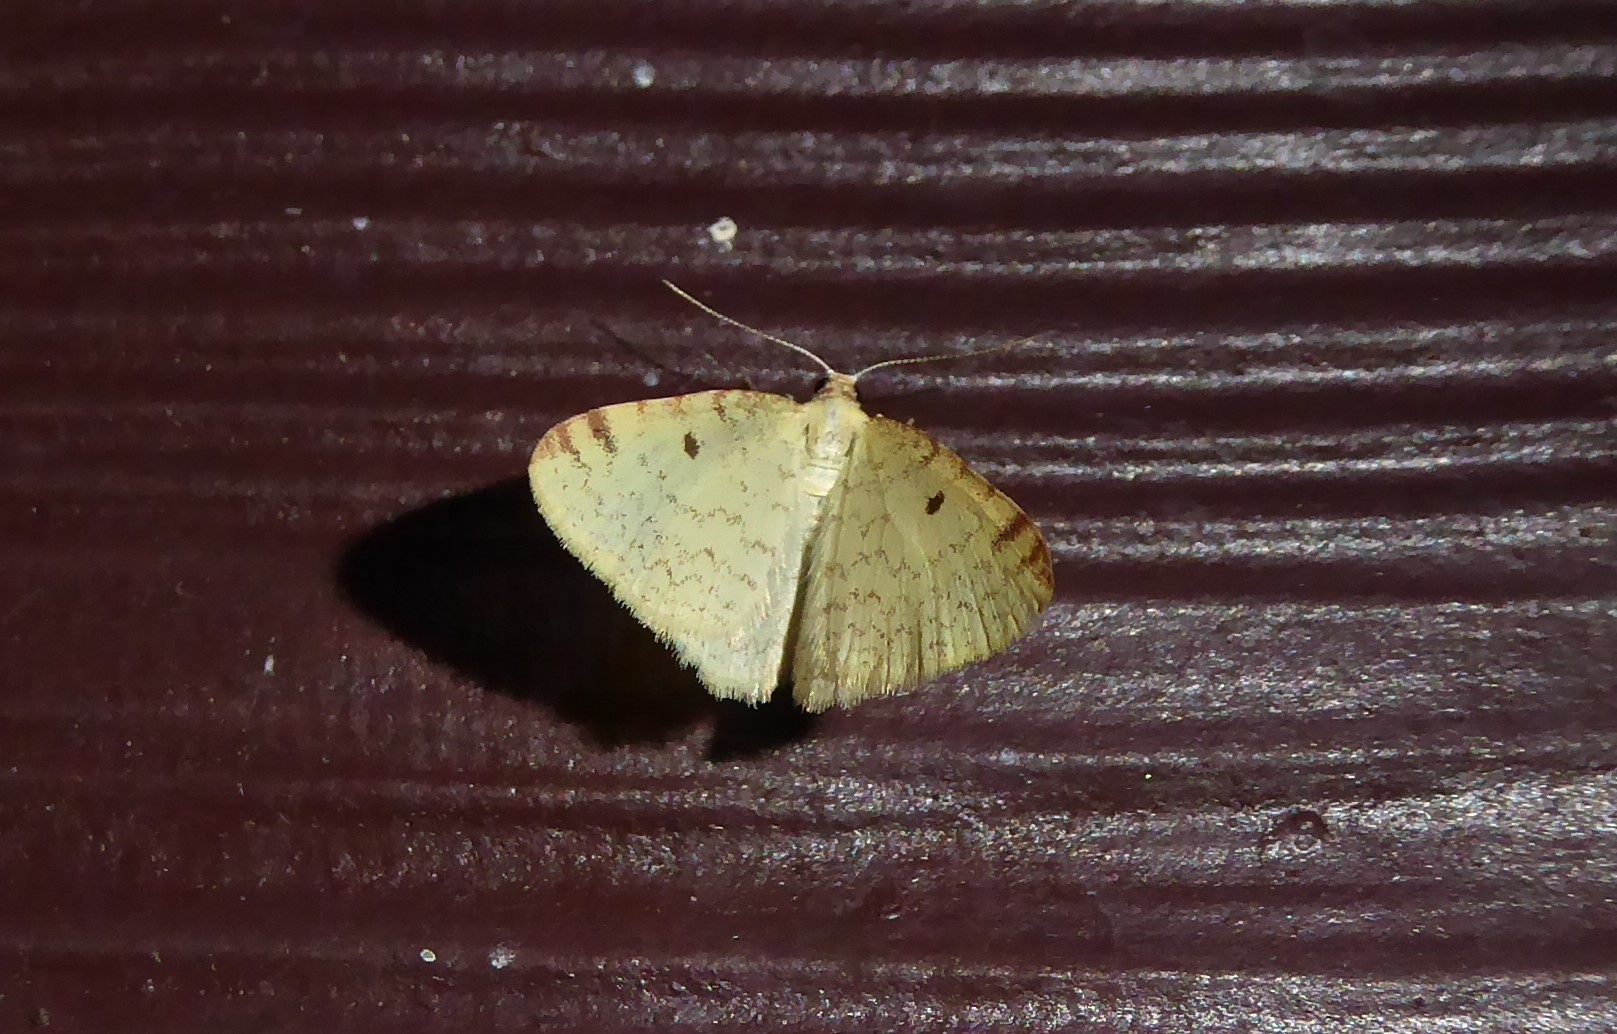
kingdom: Animalia
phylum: Arthropoda
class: Insecta
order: Lepidoptera
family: Geometridae
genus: Epiphryne
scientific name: Epiphryne undosata
